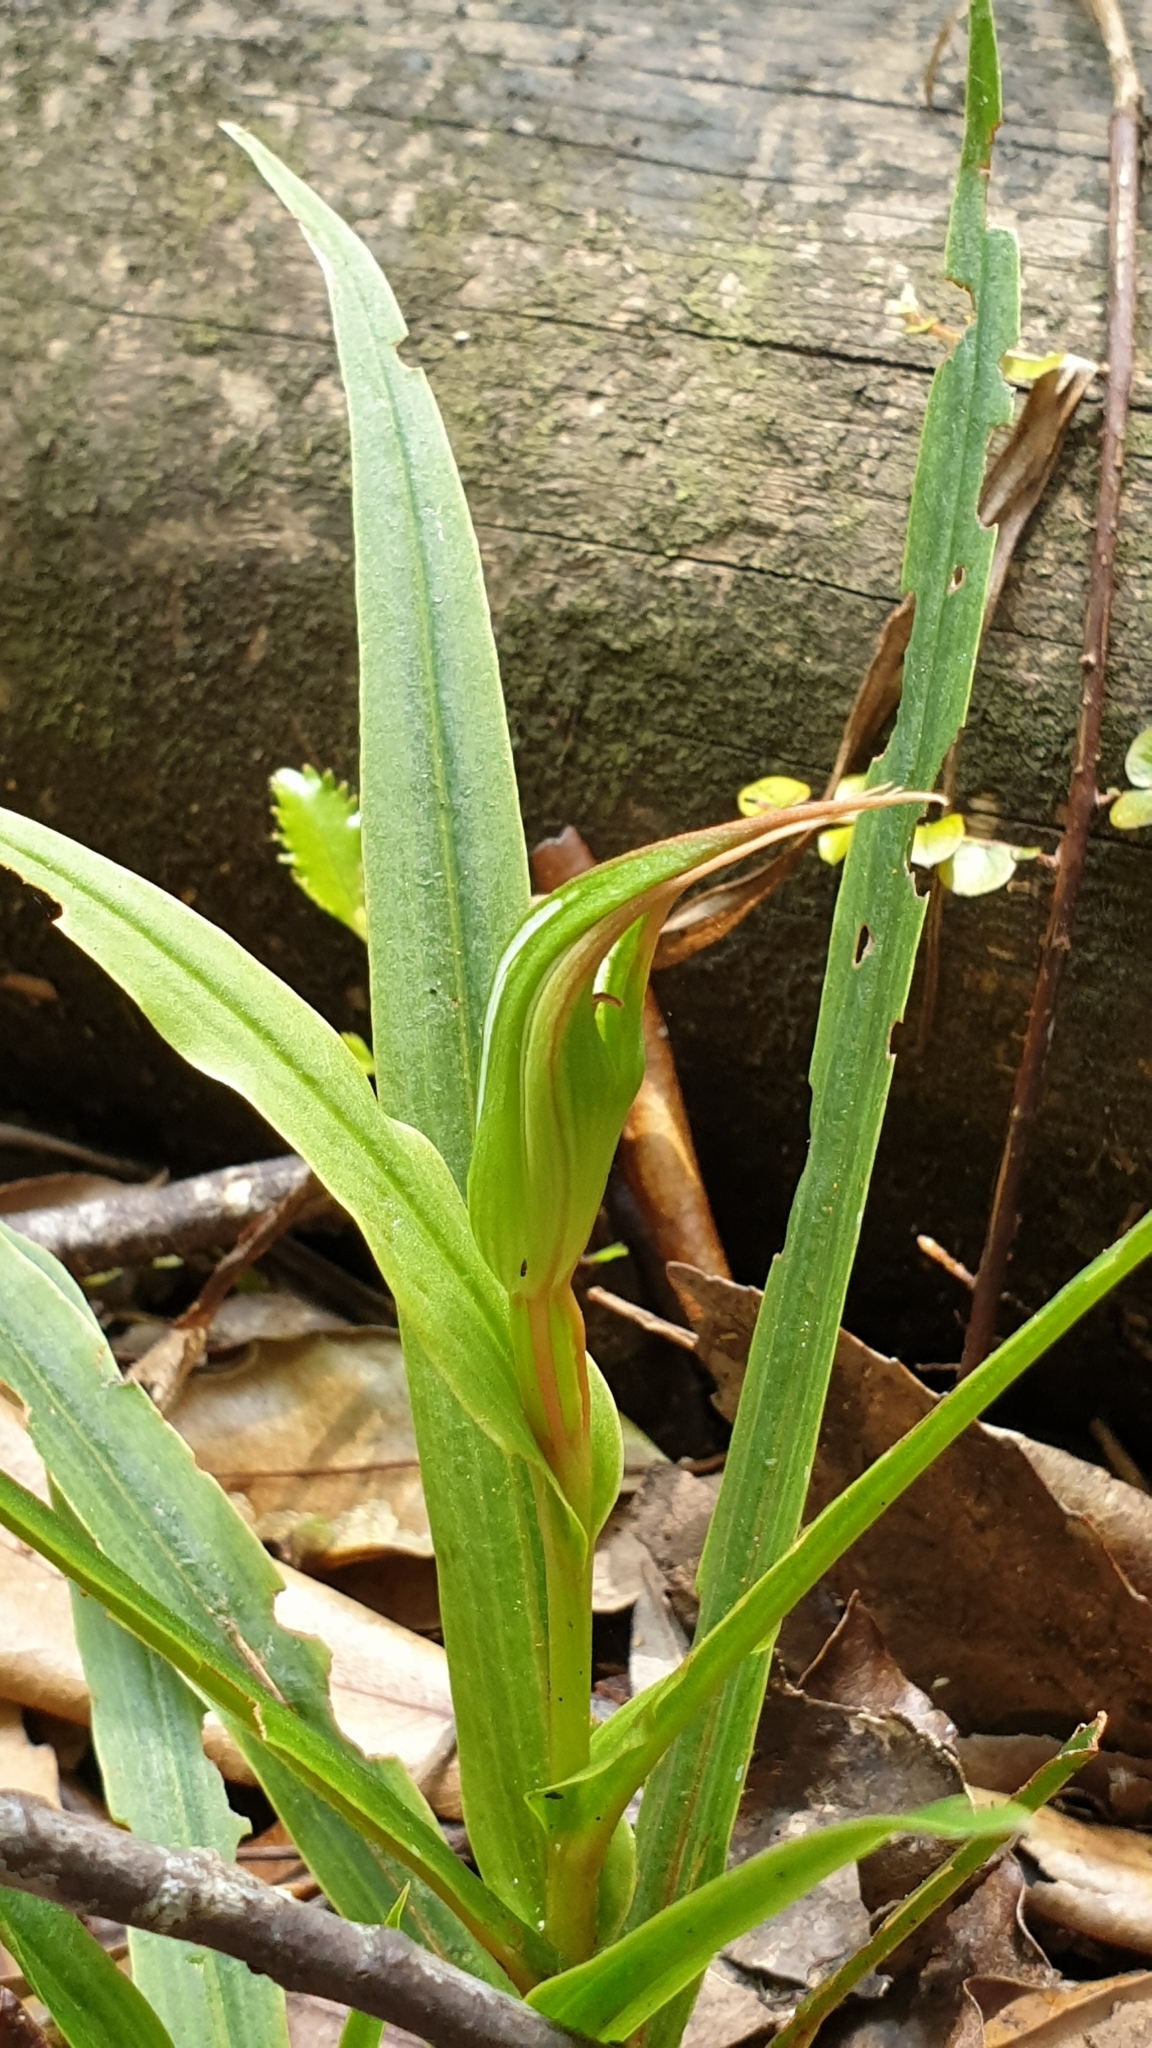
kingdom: Plantae
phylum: Tracheophyta
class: Liliopsida
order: Asparagales
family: Orchidaceae
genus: Pterostylis
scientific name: Pterostylis cardiostigma
